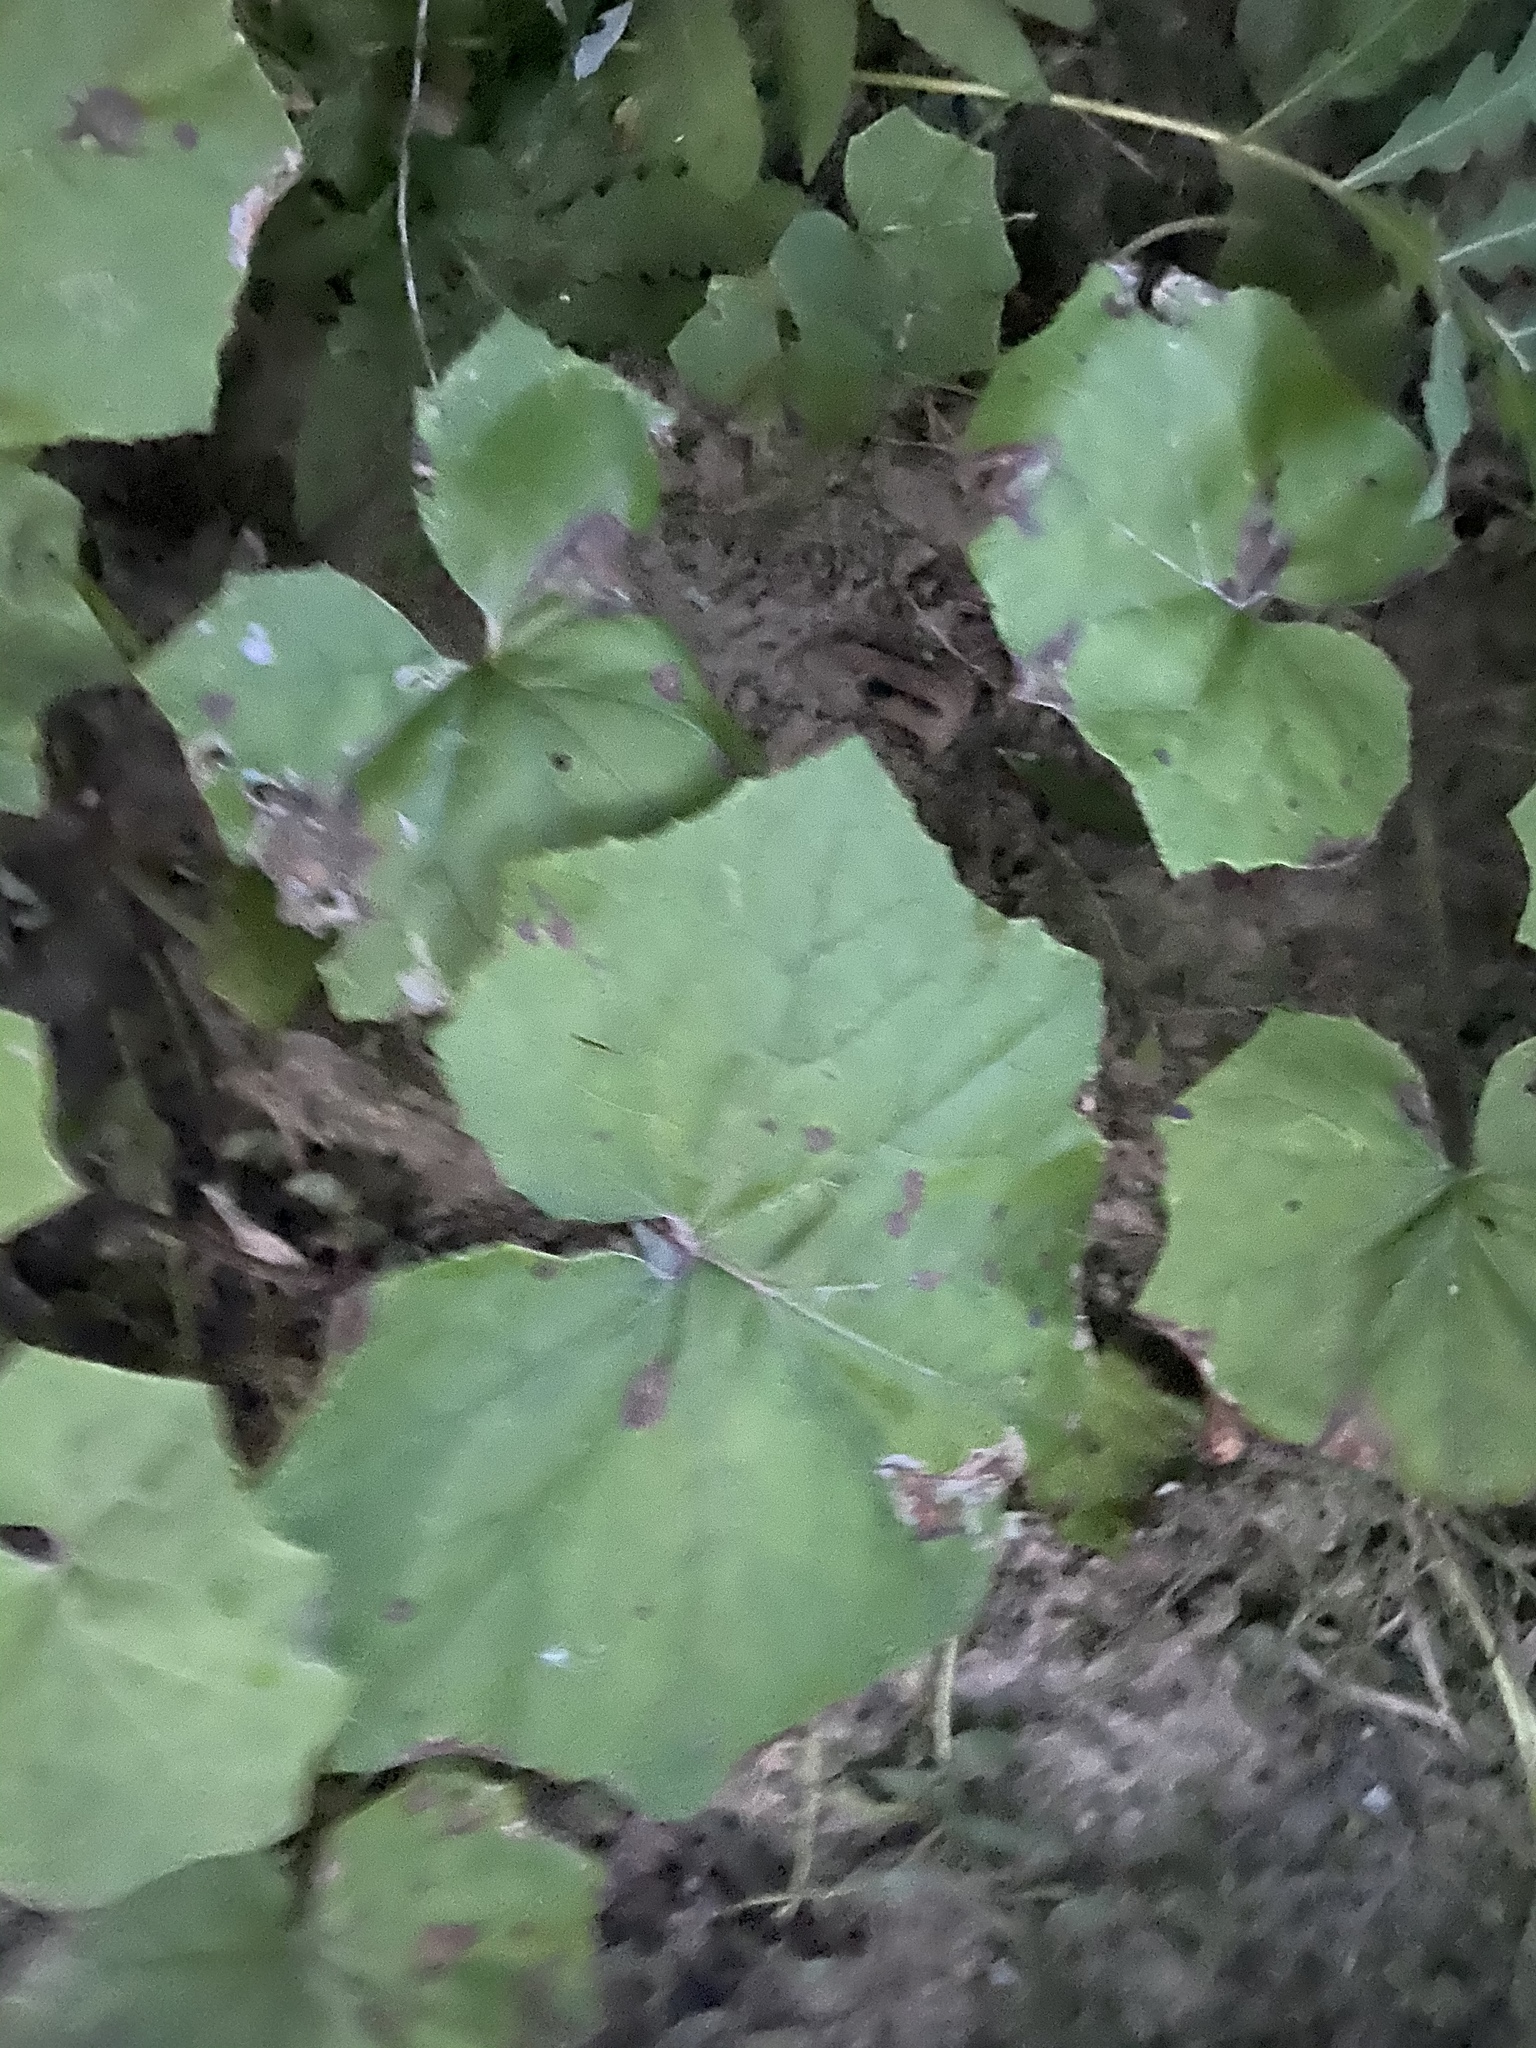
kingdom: Plantae
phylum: Tracheophyta
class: Magnoliopsida
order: Asterales
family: Asteraceae
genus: Tussilago
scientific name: Tussilago farfara
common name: Coltsfoot
